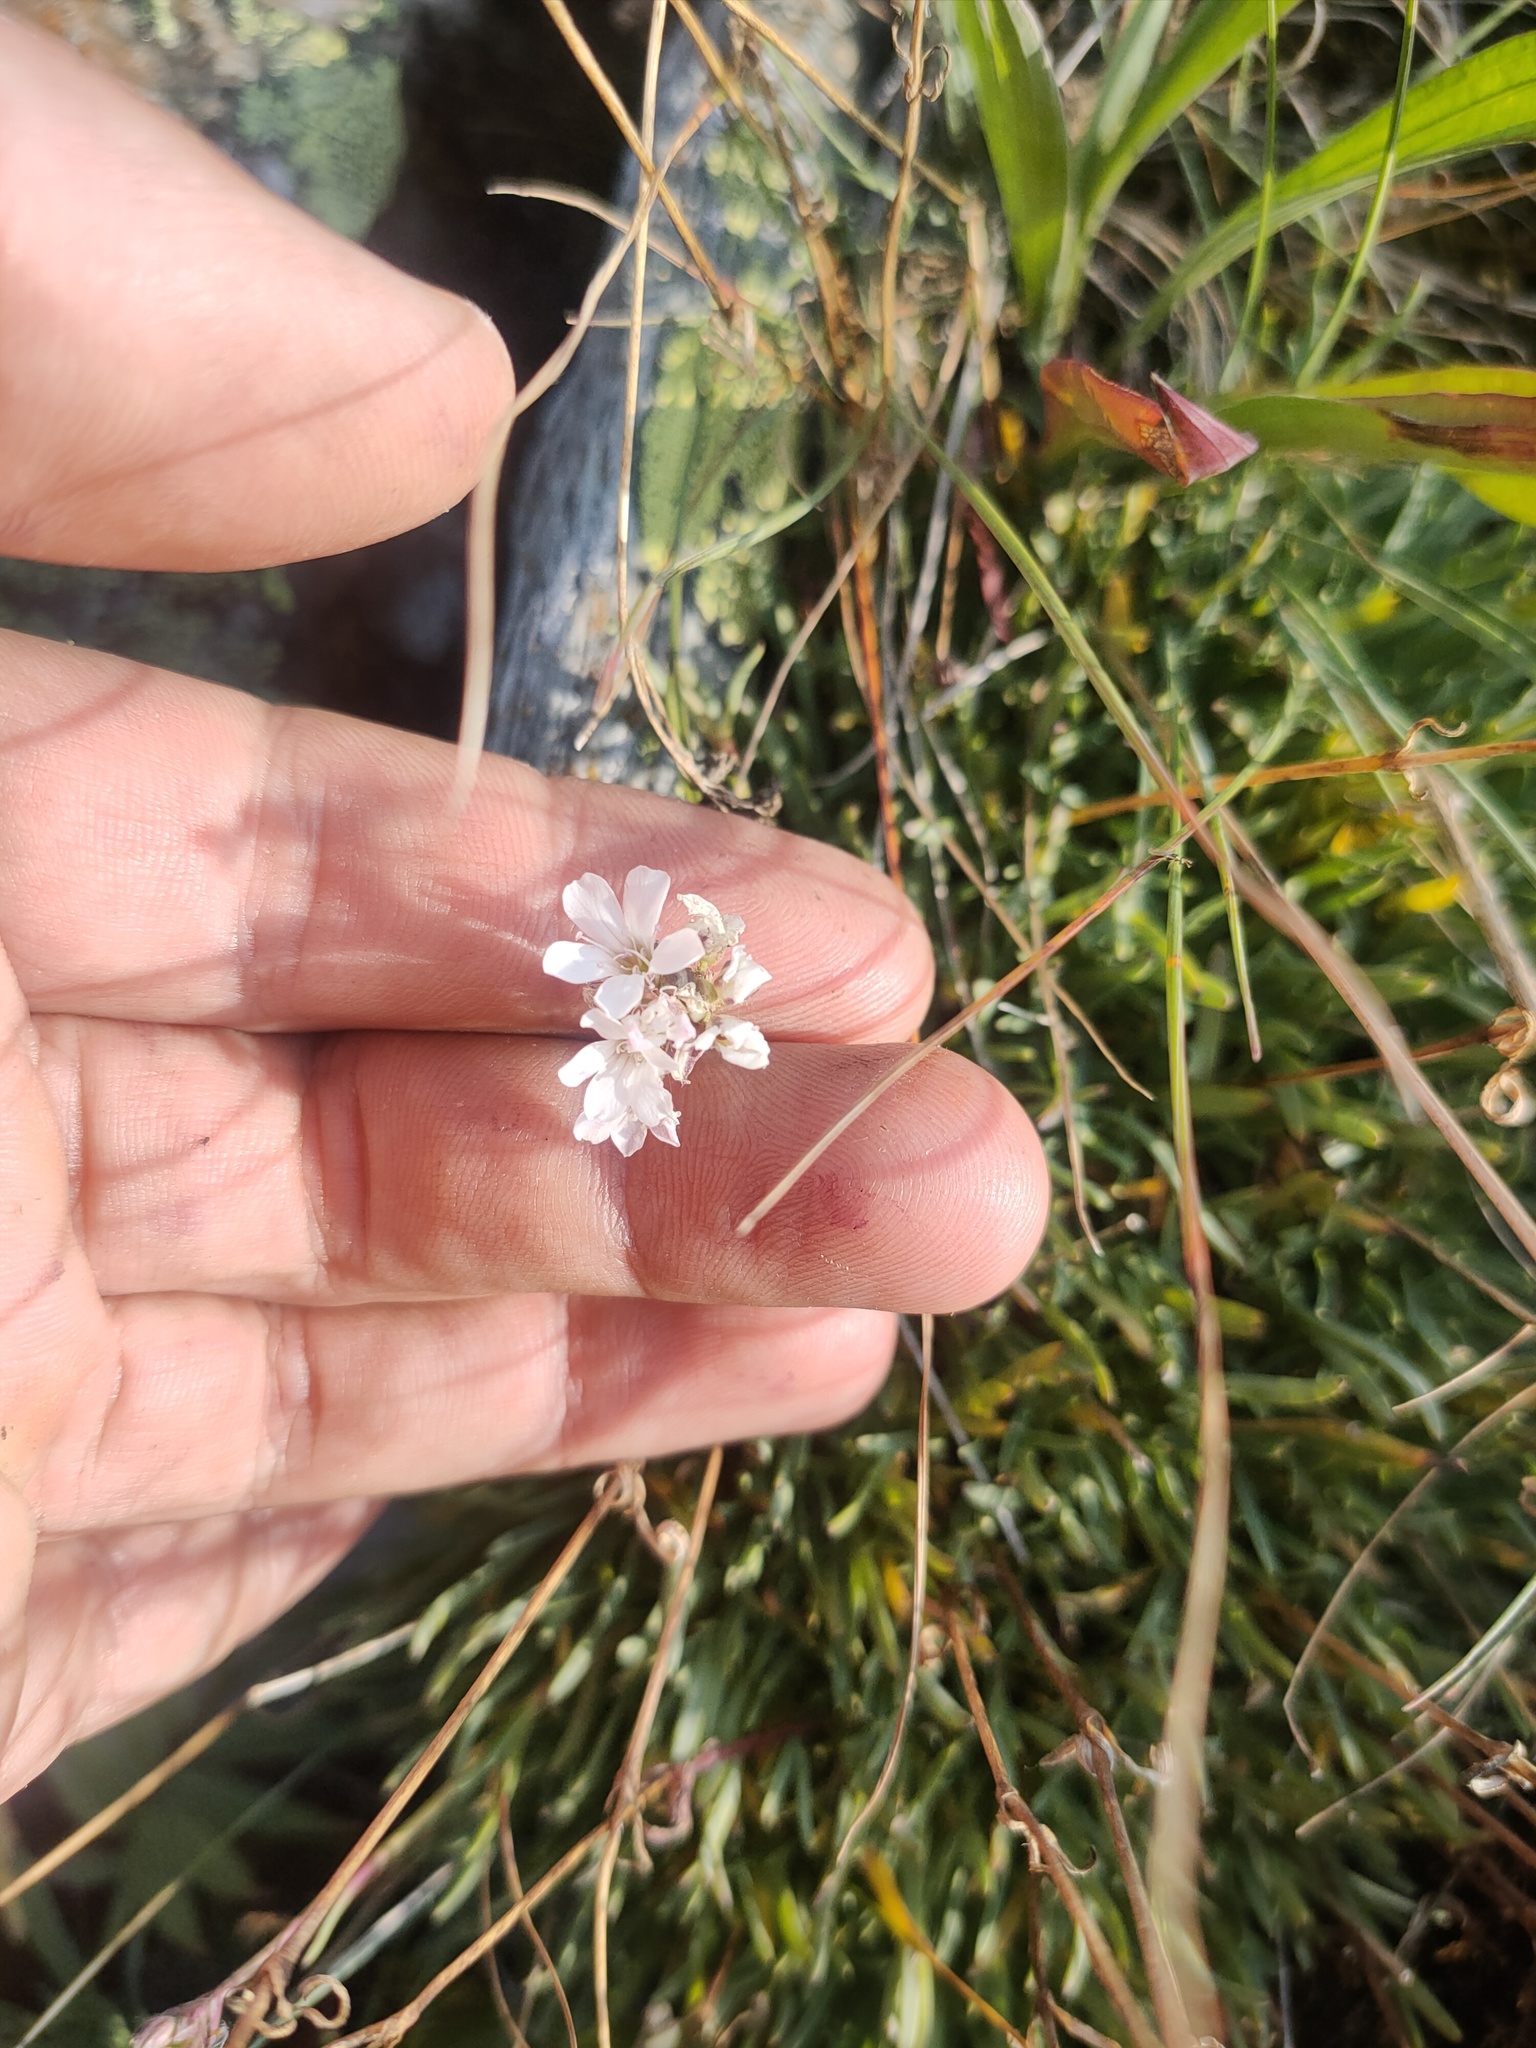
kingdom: Plantae
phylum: Tracheophyta
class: Magnoliopsida
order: Caryophyllales
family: Caryophyllaceae
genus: Gypsophila
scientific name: Gypsophila uralensis
